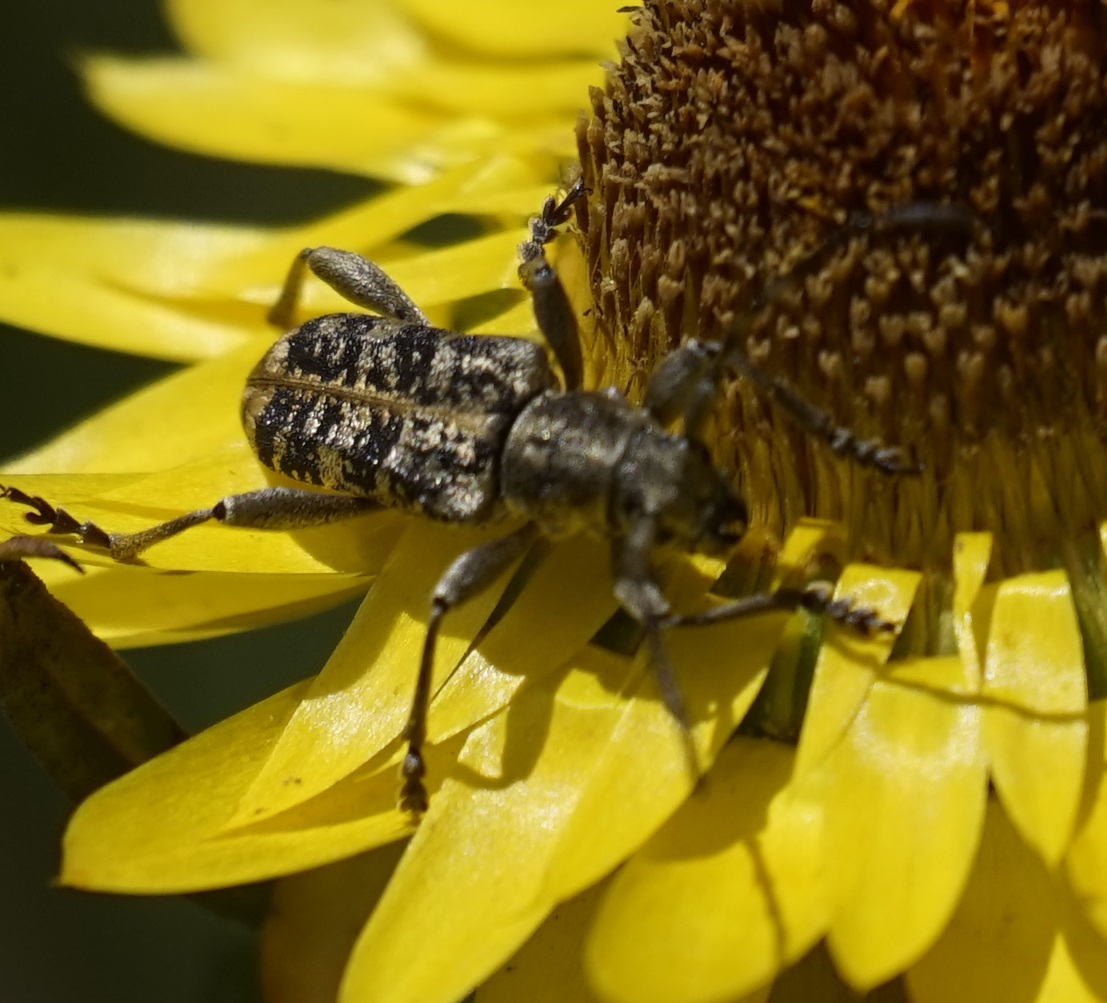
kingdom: Animalia
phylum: Arthropoda
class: Insecta
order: Coleoptera
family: Cerambycidae
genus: Pempsamacra
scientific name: Pempsamacra dispersa
